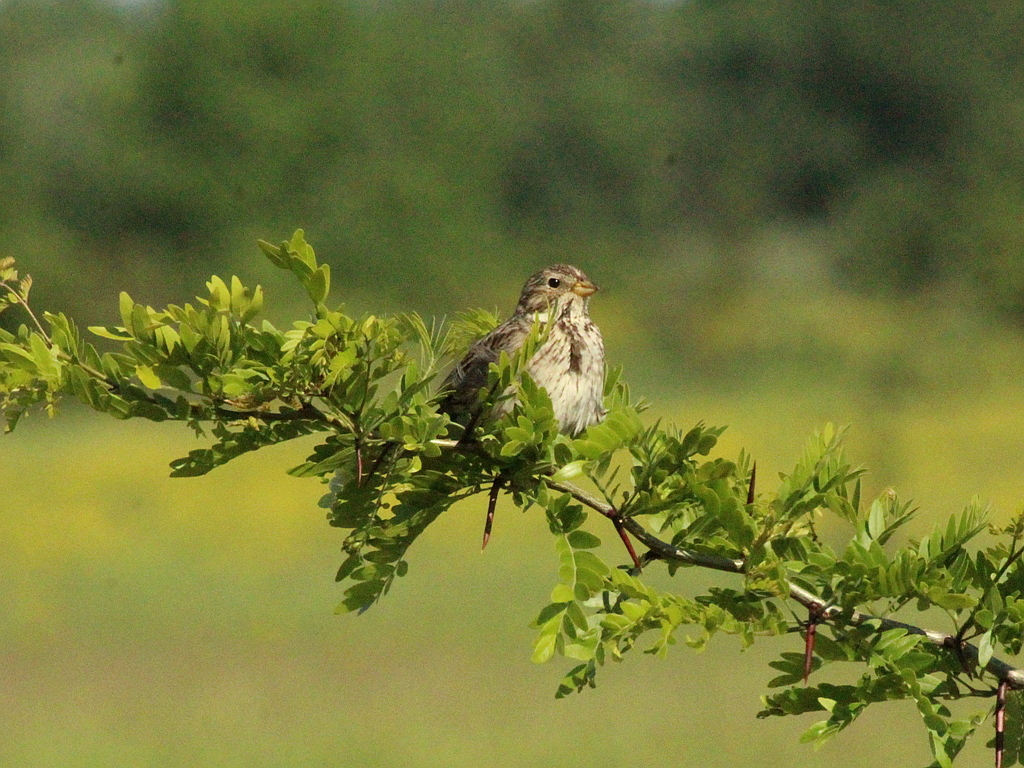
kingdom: Animalia
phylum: Chordata
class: Aves
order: Passeriformes
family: Emberizidae
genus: Emberiza
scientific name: Emberiza calandra
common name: Corn bunting
